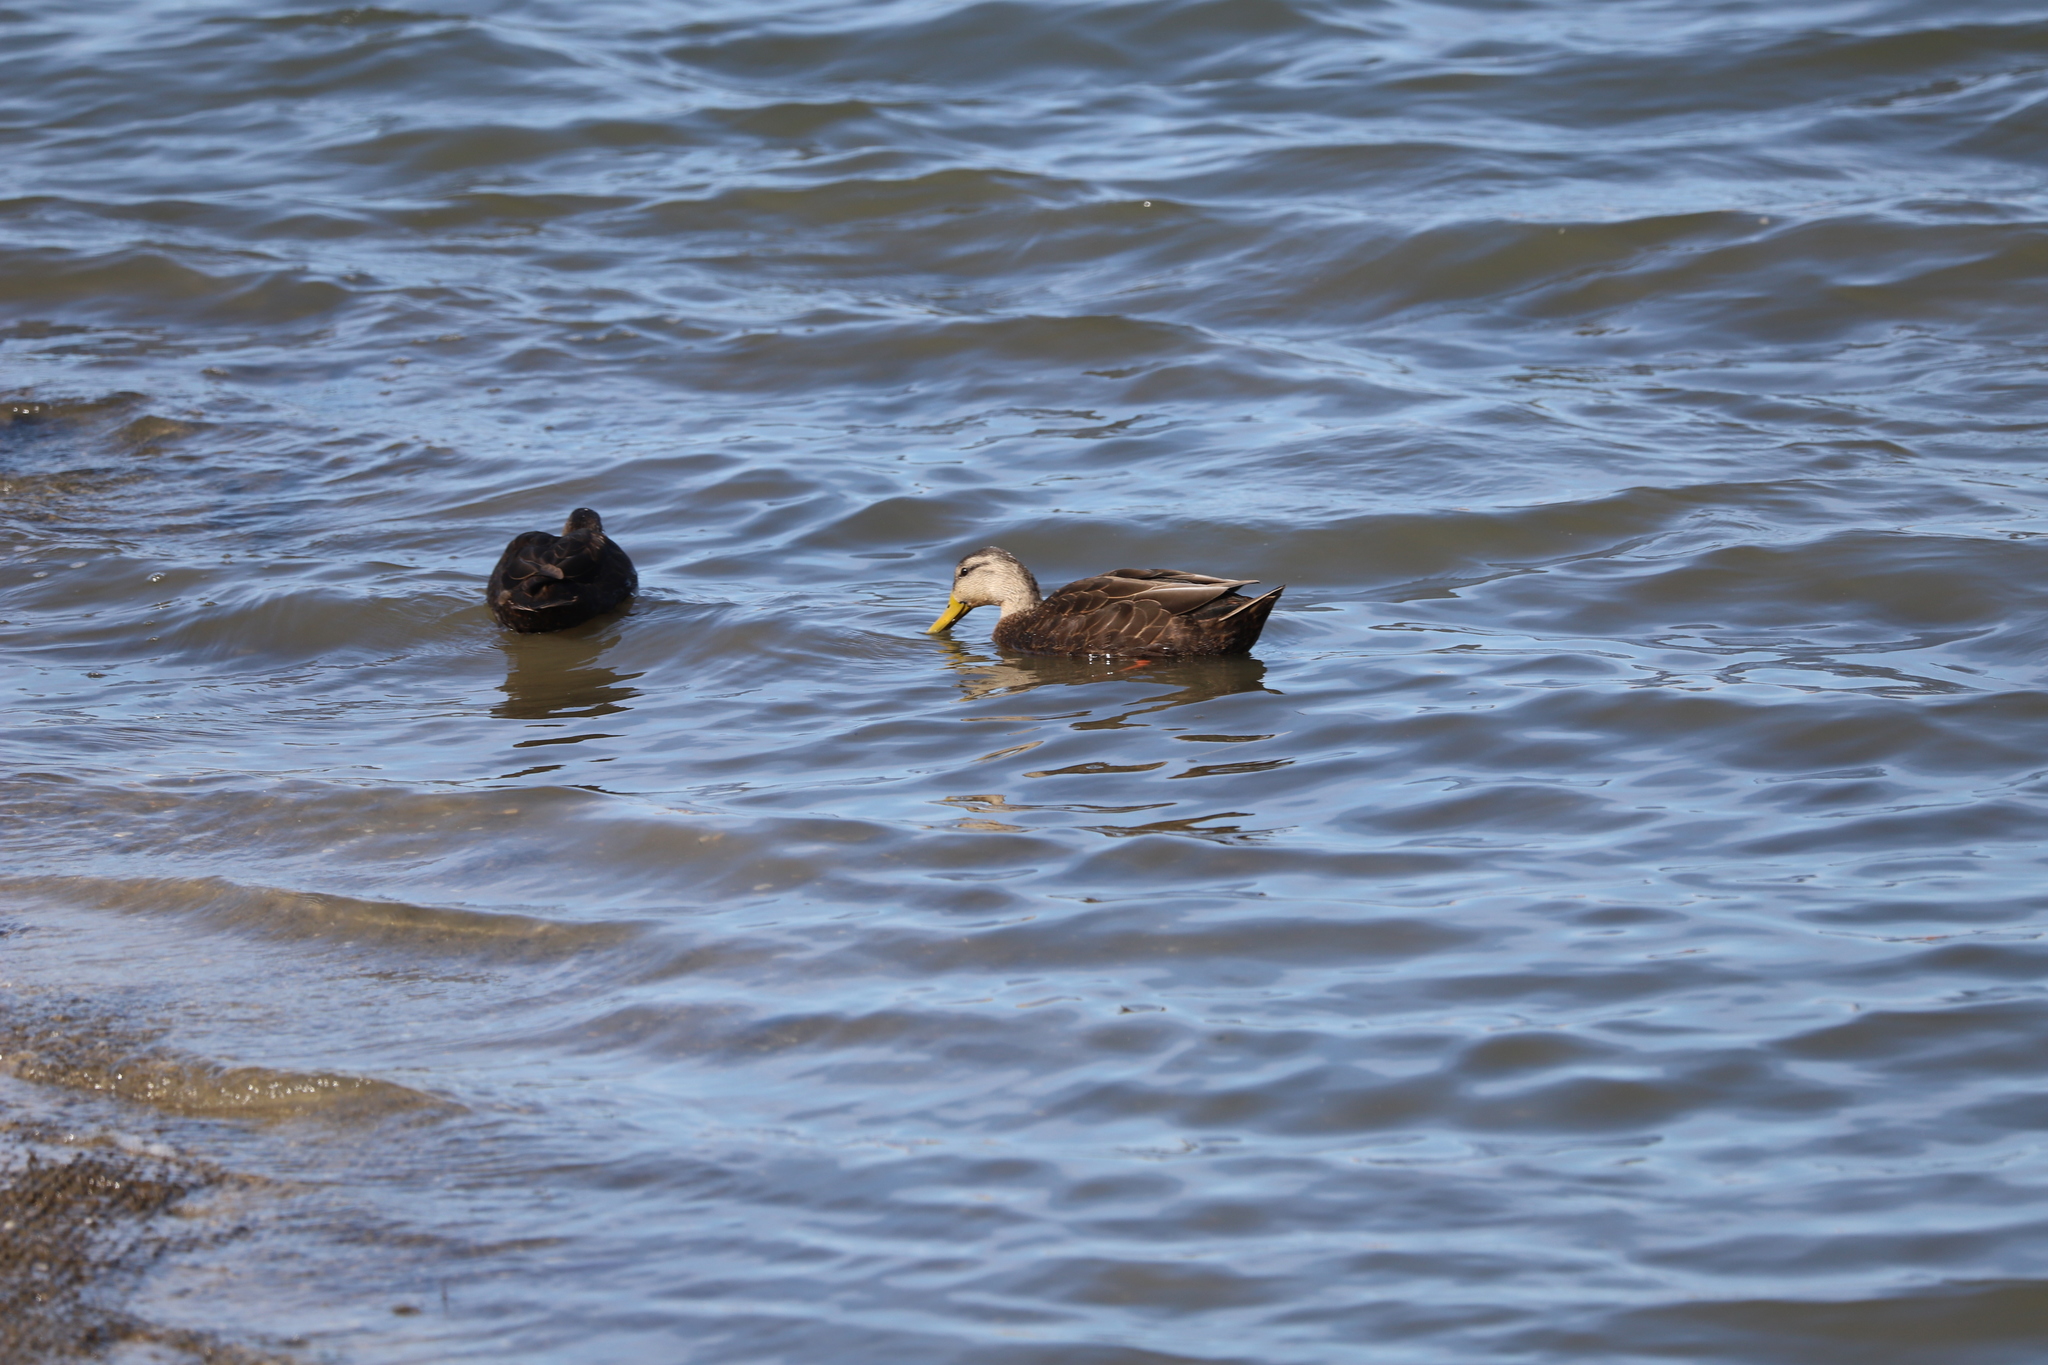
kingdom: Animalia
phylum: Chordata
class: Aves
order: Anseriformes
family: Anatidae
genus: Anas
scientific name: Anas rubripes
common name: American black duck
